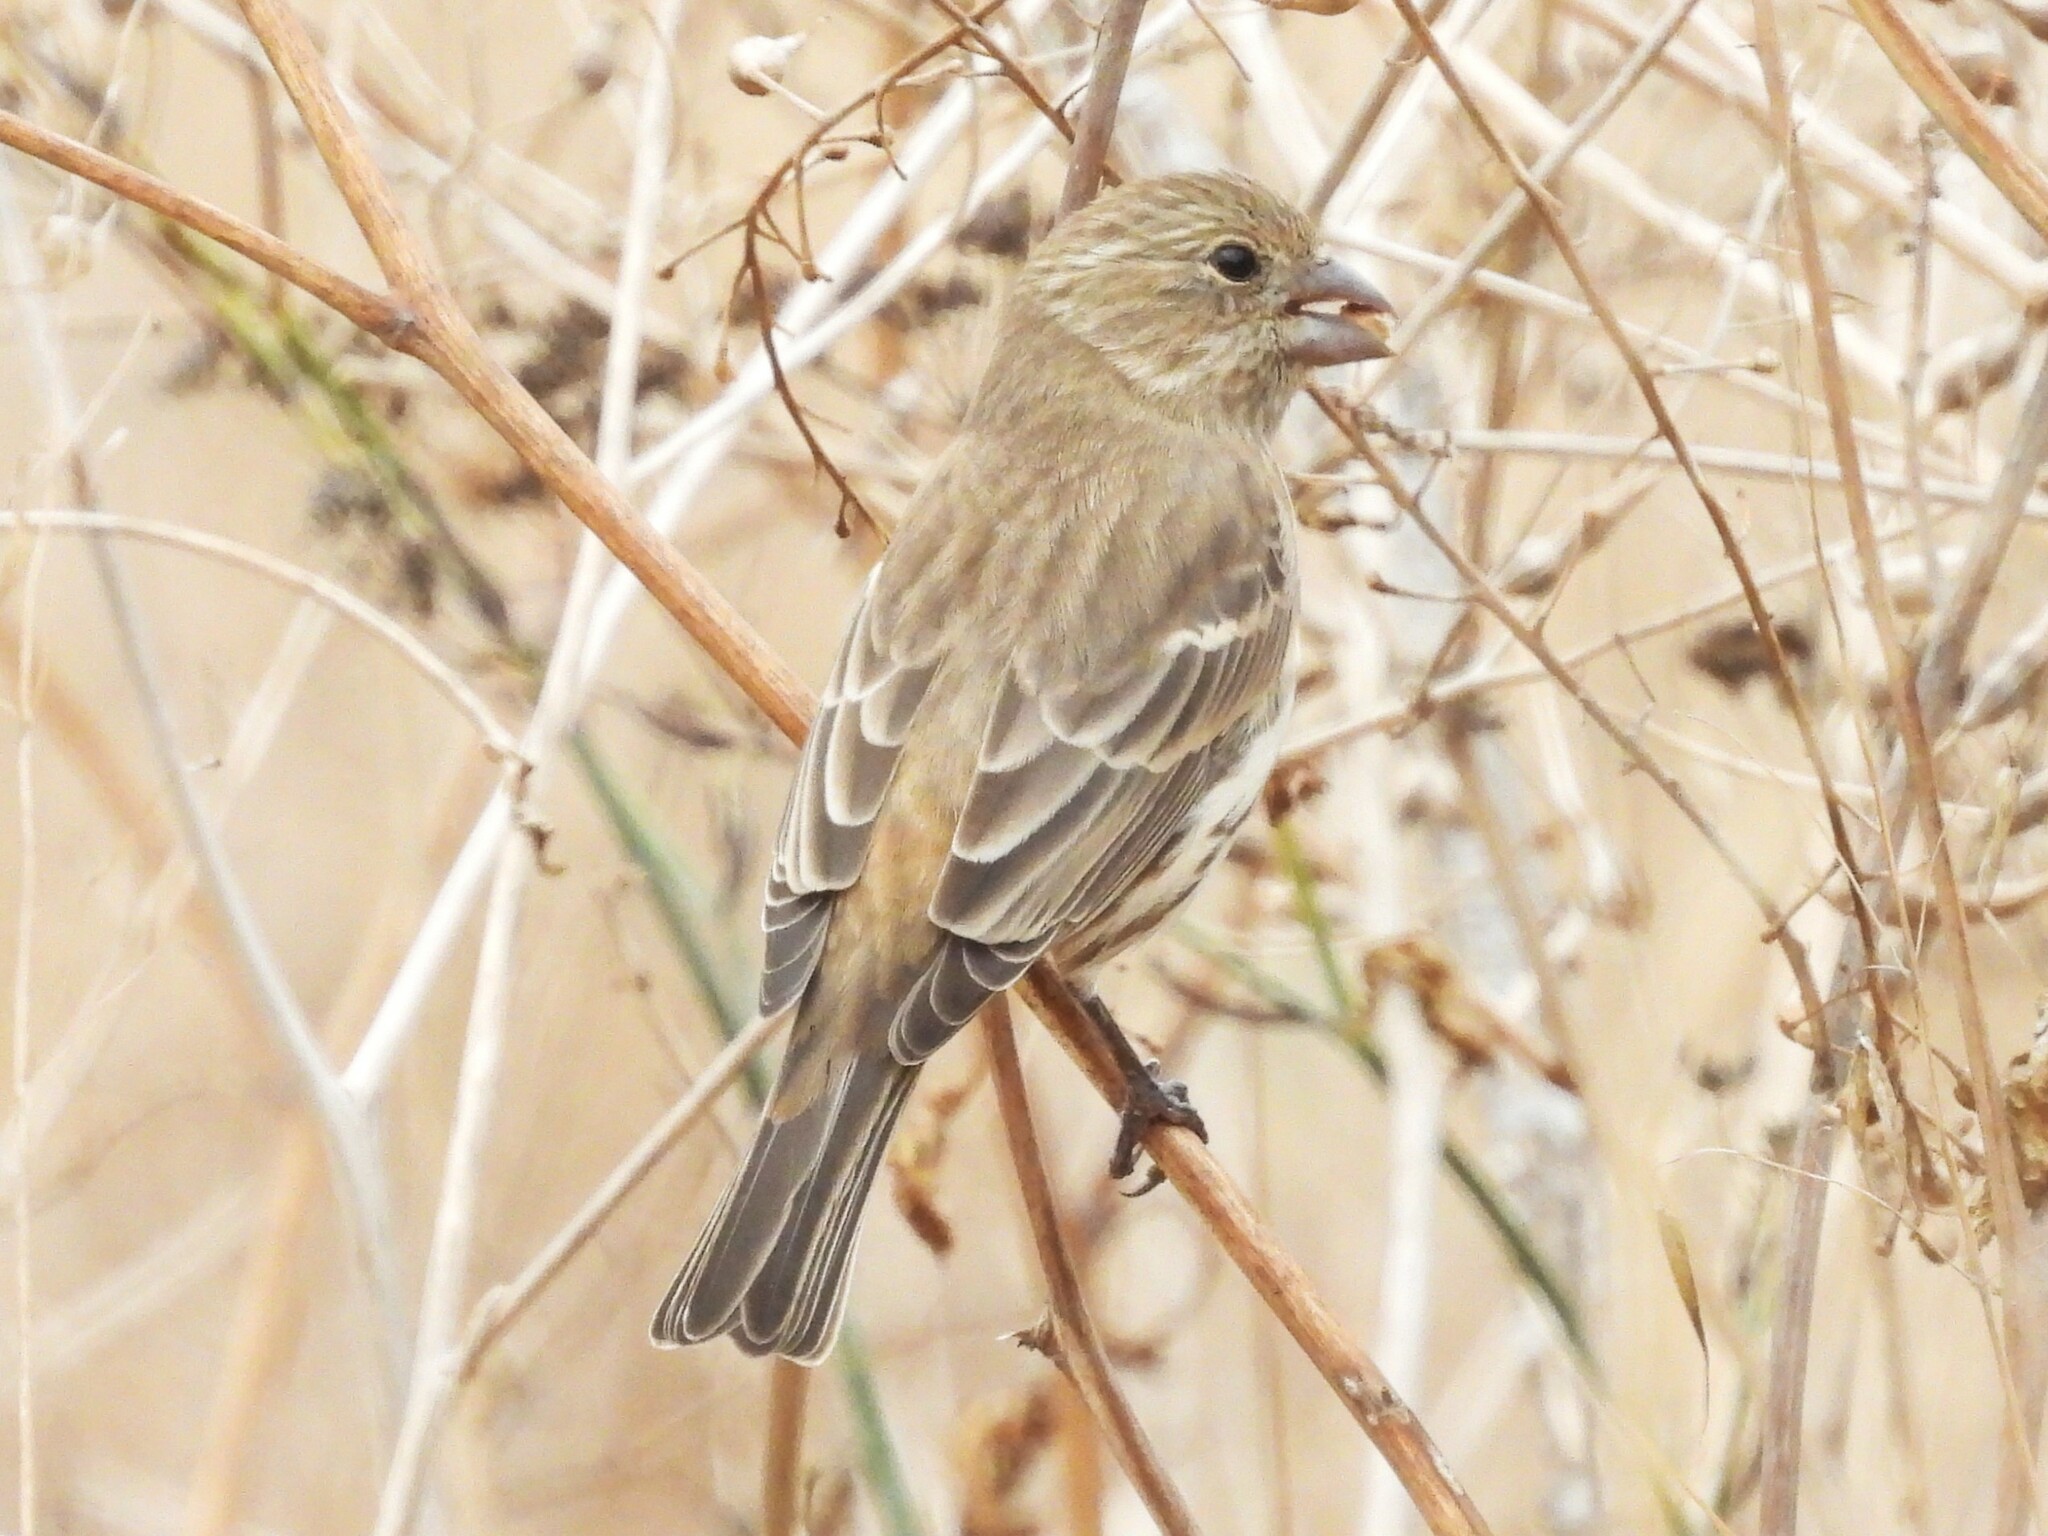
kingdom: Animalia
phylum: Chordata
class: Aves
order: Passeriformes
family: Fringillidae
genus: Haemorhous
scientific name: Haemorhous mexicanus
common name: House finch
